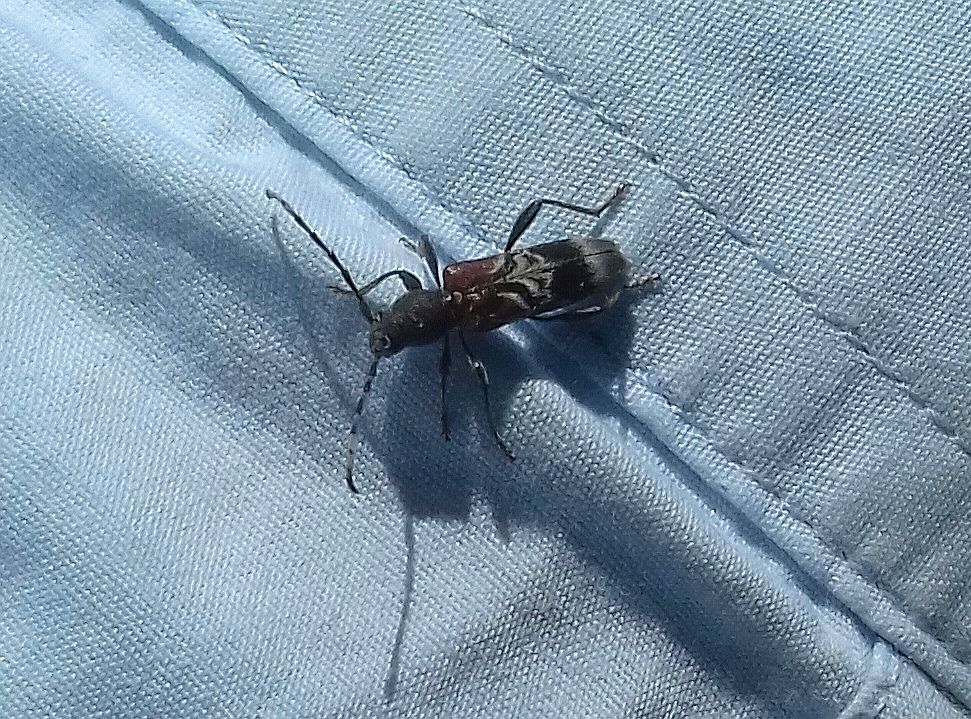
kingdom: Animalia
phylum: Arthropoda
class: Insecta
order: Coleoptera
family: Cerambycidae
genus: Anaglyptus
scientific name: Anaglyptus mysticus
